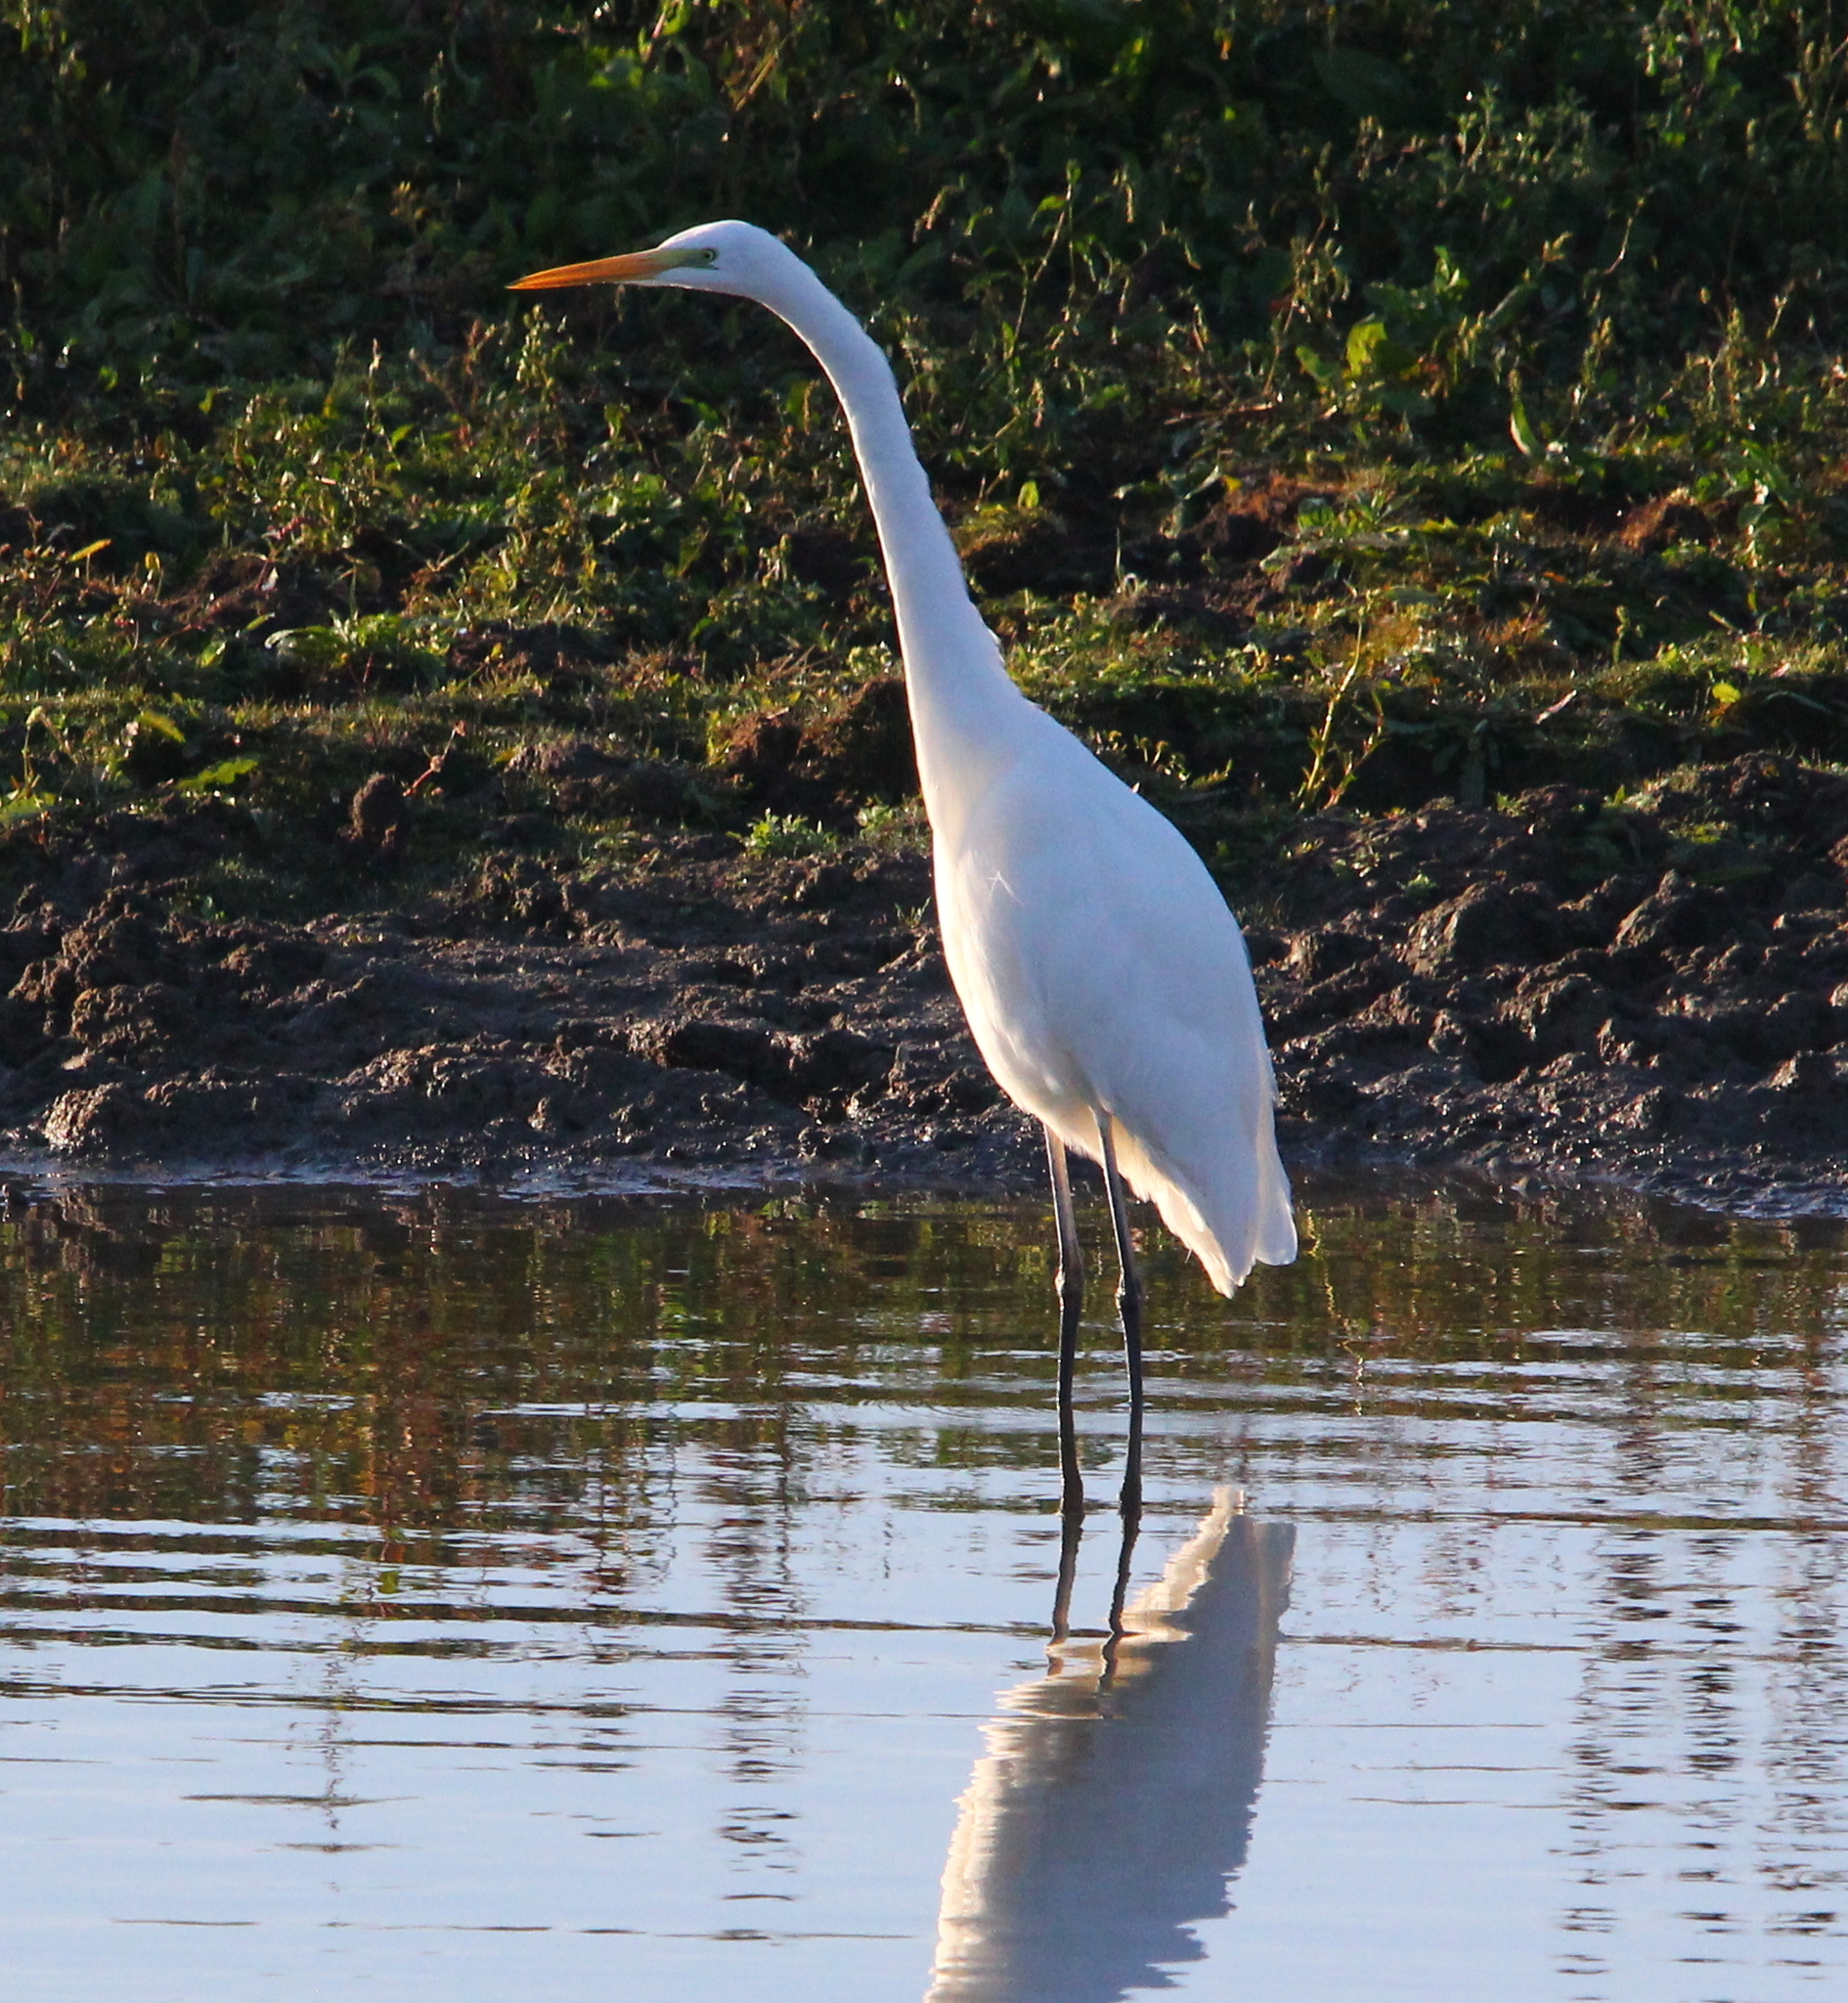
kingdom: Animalia
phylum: Chordata
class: Aves
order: Pelecaniformes
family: Ardeidae
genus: Ardea
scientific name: Ardea alba
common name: Great egret
